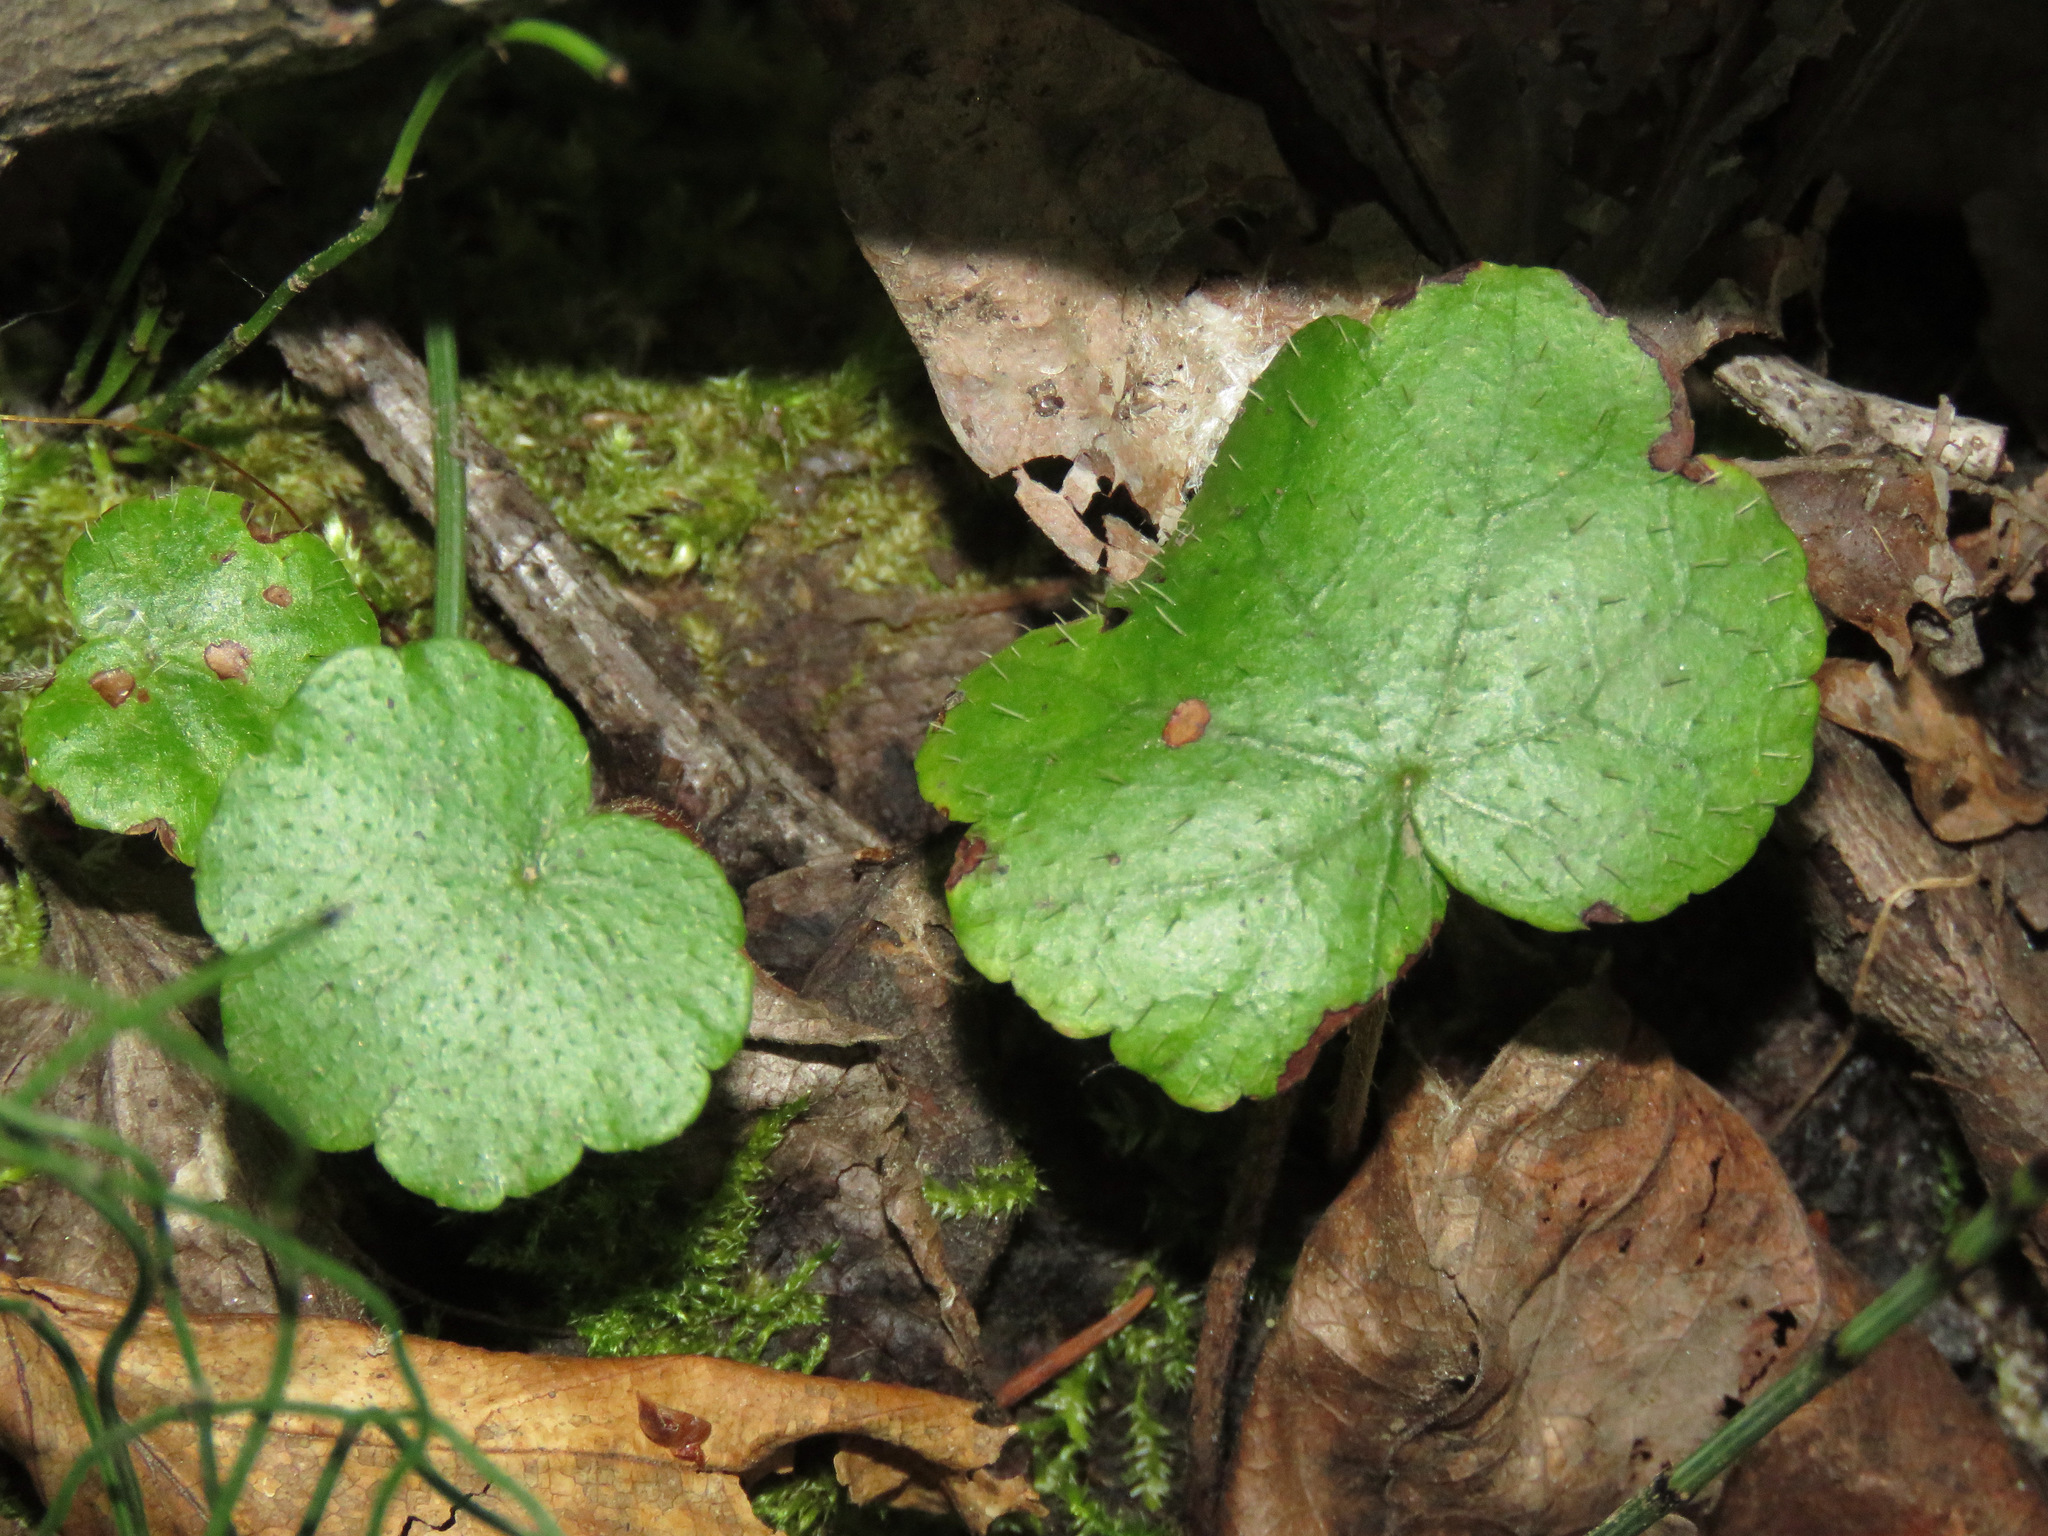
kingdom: Plantae
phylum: Tracheophyta
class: Magnoliopsida
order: Saxifragales
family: Saxifragaceae
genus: Mitella
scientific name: Mitella nuda
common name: Bare-stemmed bishop's-cap
